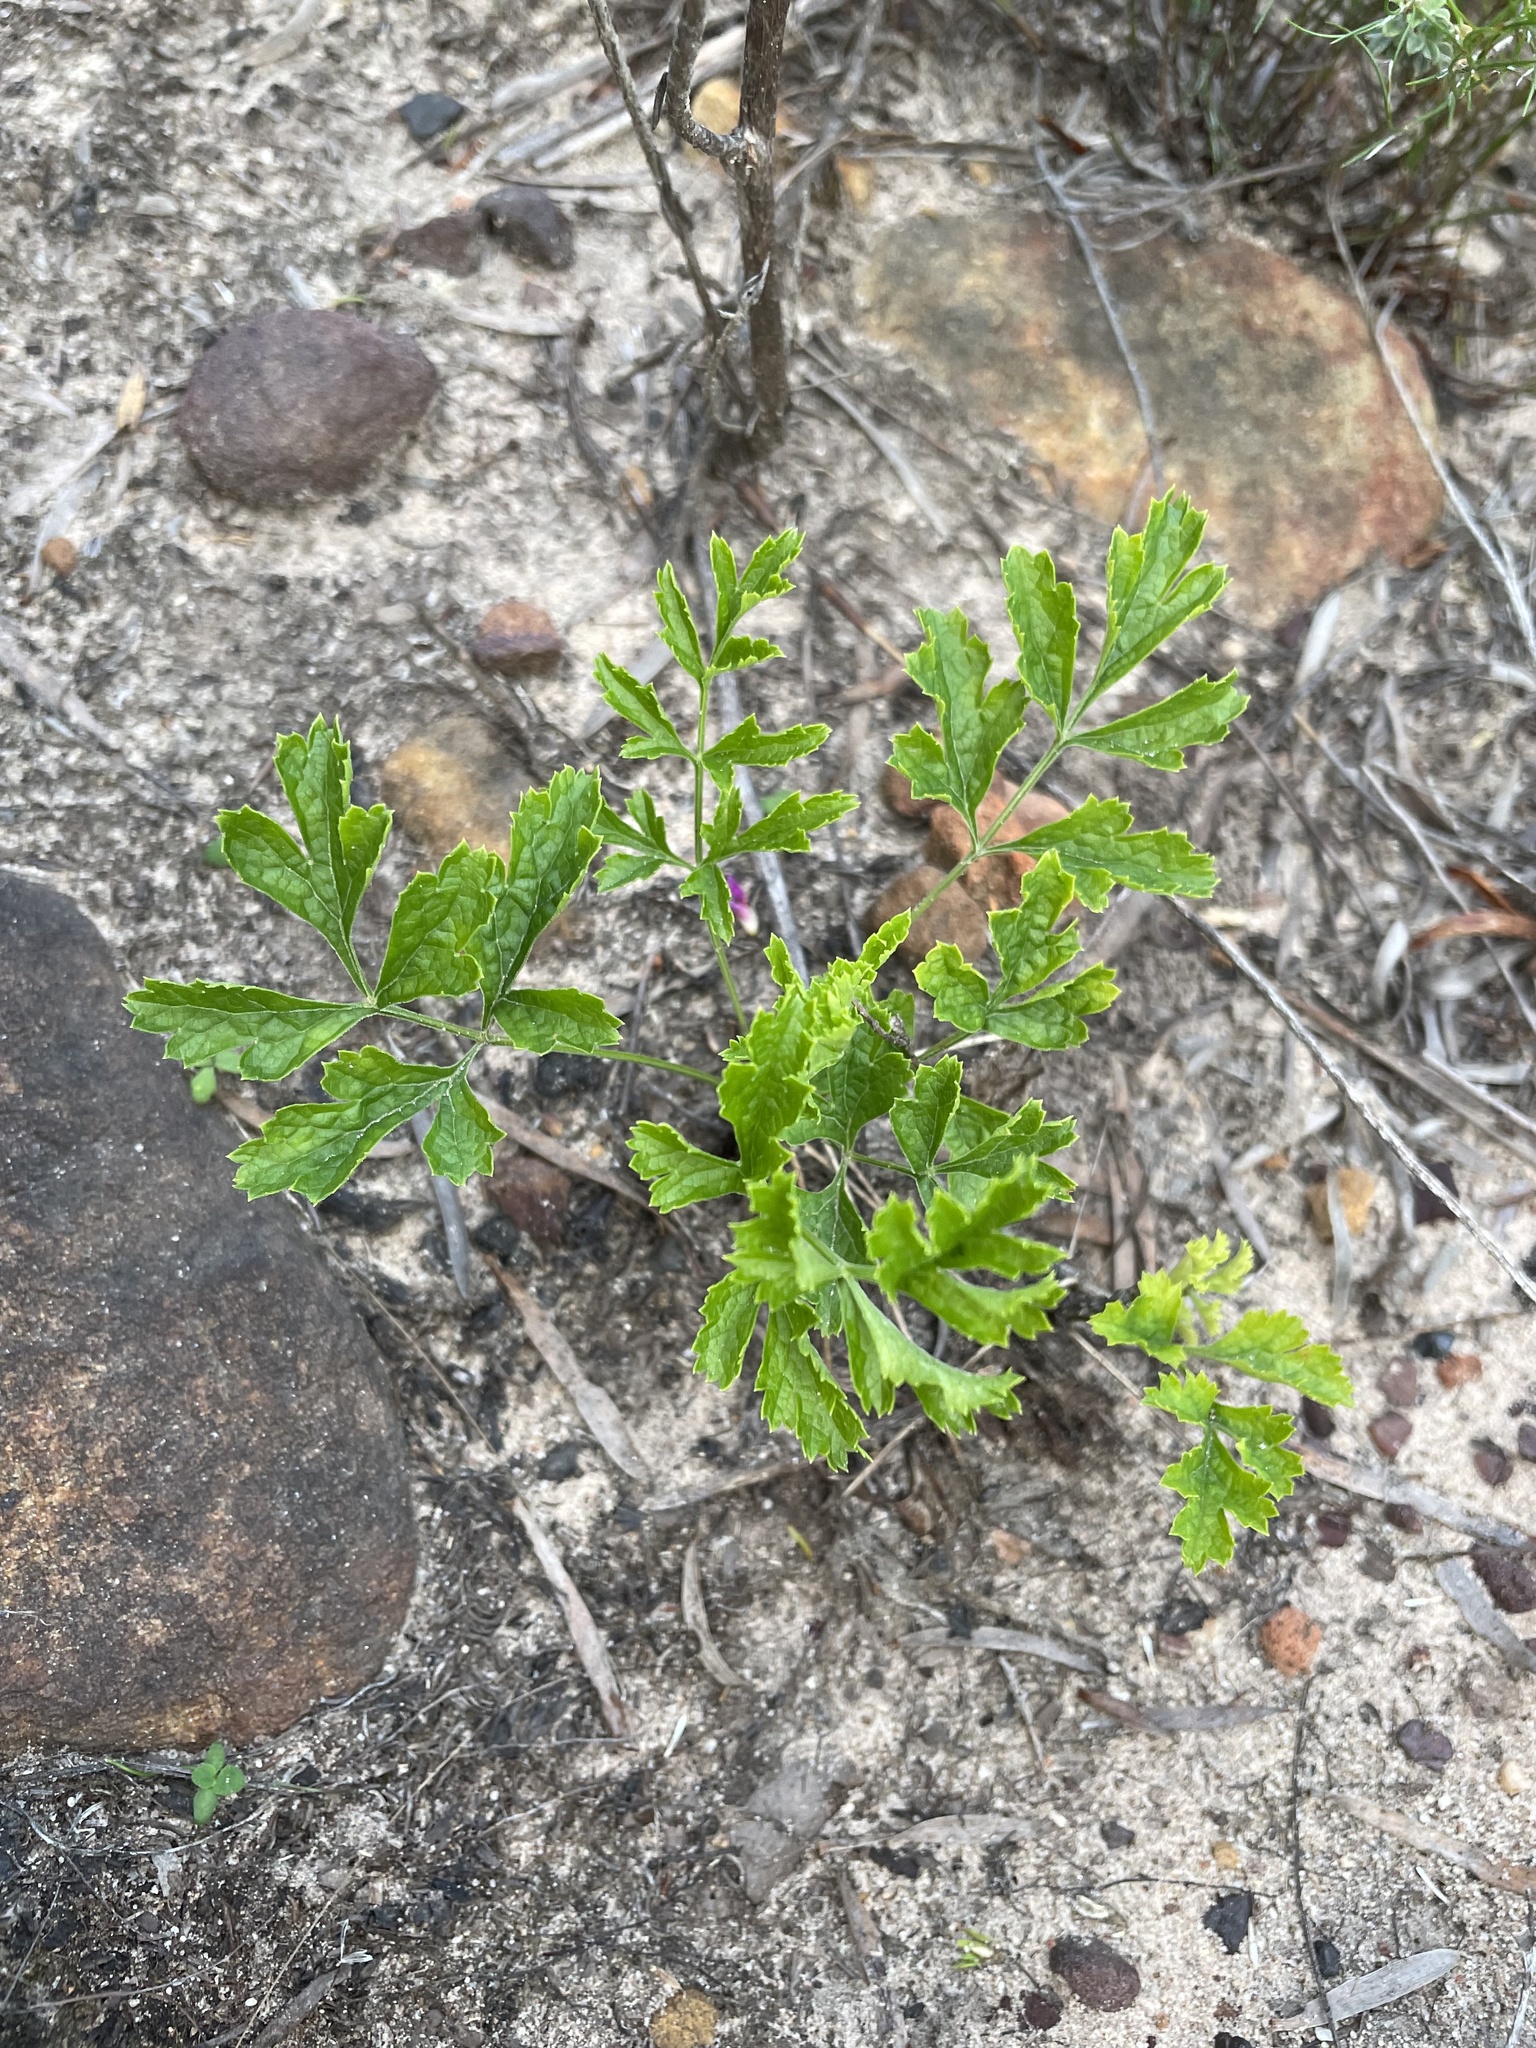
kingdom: Plantae
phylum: Tracheophyta
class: Magnoliopsida
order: Ranunculales
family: Ranunculaceae
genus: Knowltonia
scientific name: Knowltonia tenuifolia
